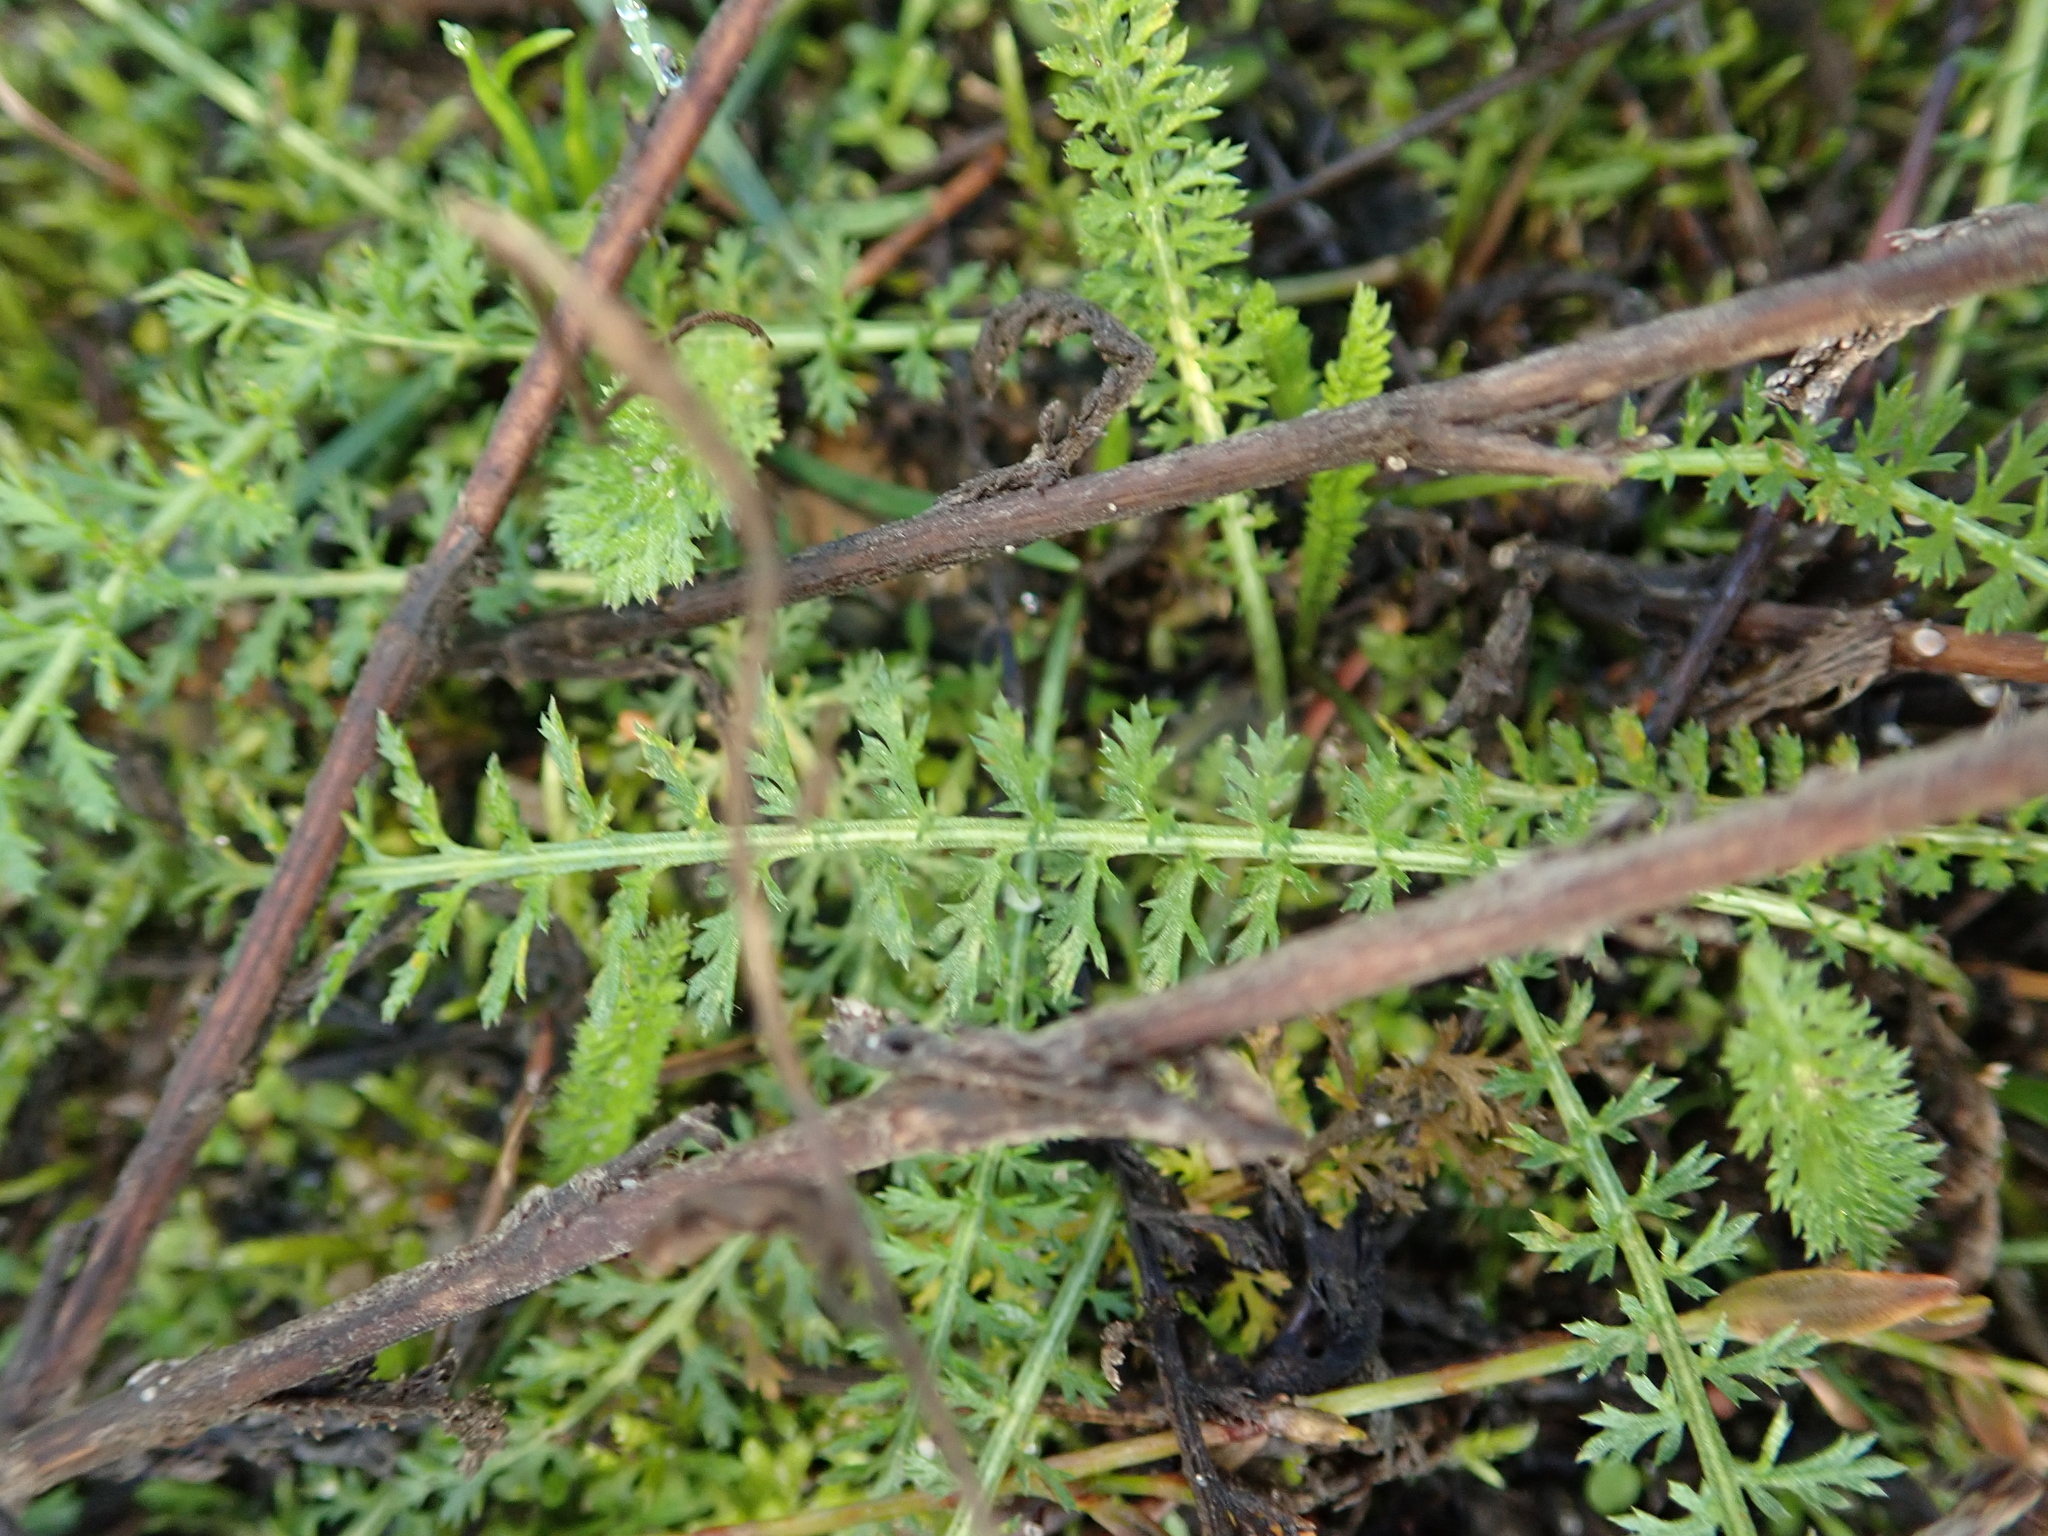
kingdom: Plantae
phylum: Tracheophyta
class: Magnoliopsida
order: Asterales
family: Asteraceae
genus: Achillea
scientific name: Achillea millefolium
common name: Yarrow
